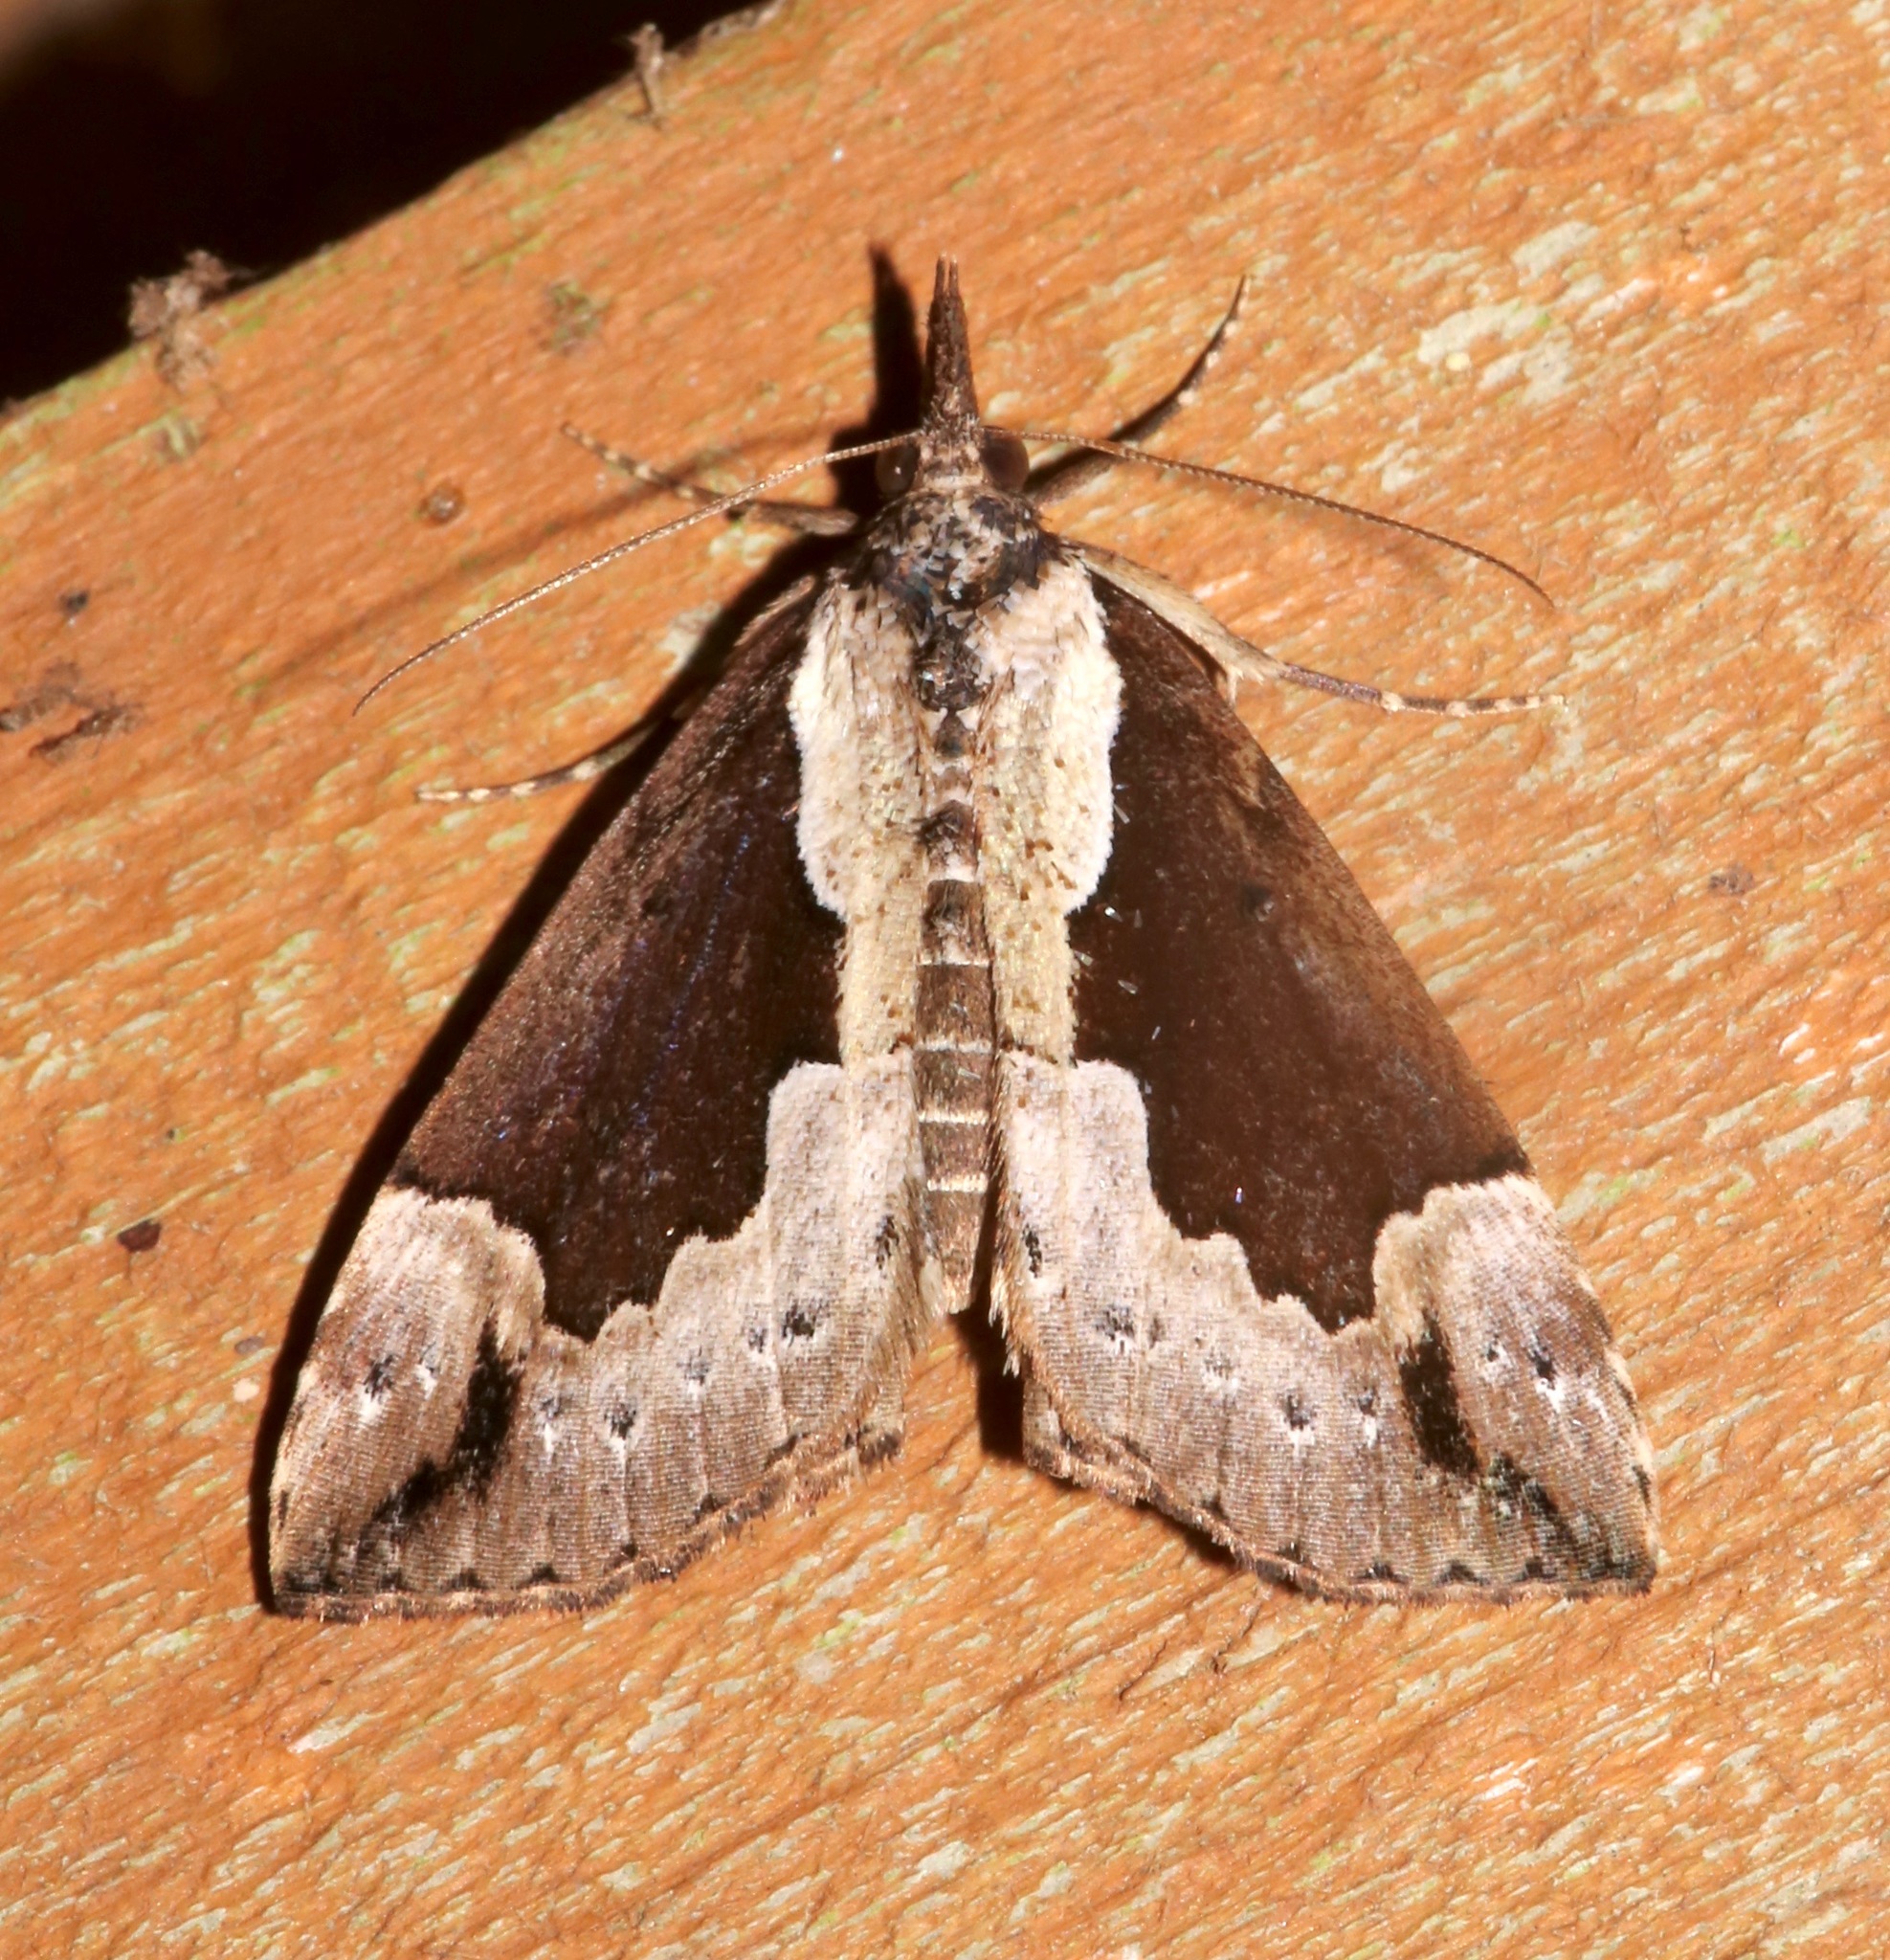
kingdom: Animalia
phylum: Arthropoda
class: Insecta
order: Lepidoptera
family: Erebidae
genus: Hypena
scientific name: Hypena baltimoralis
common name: Baltimore snout
